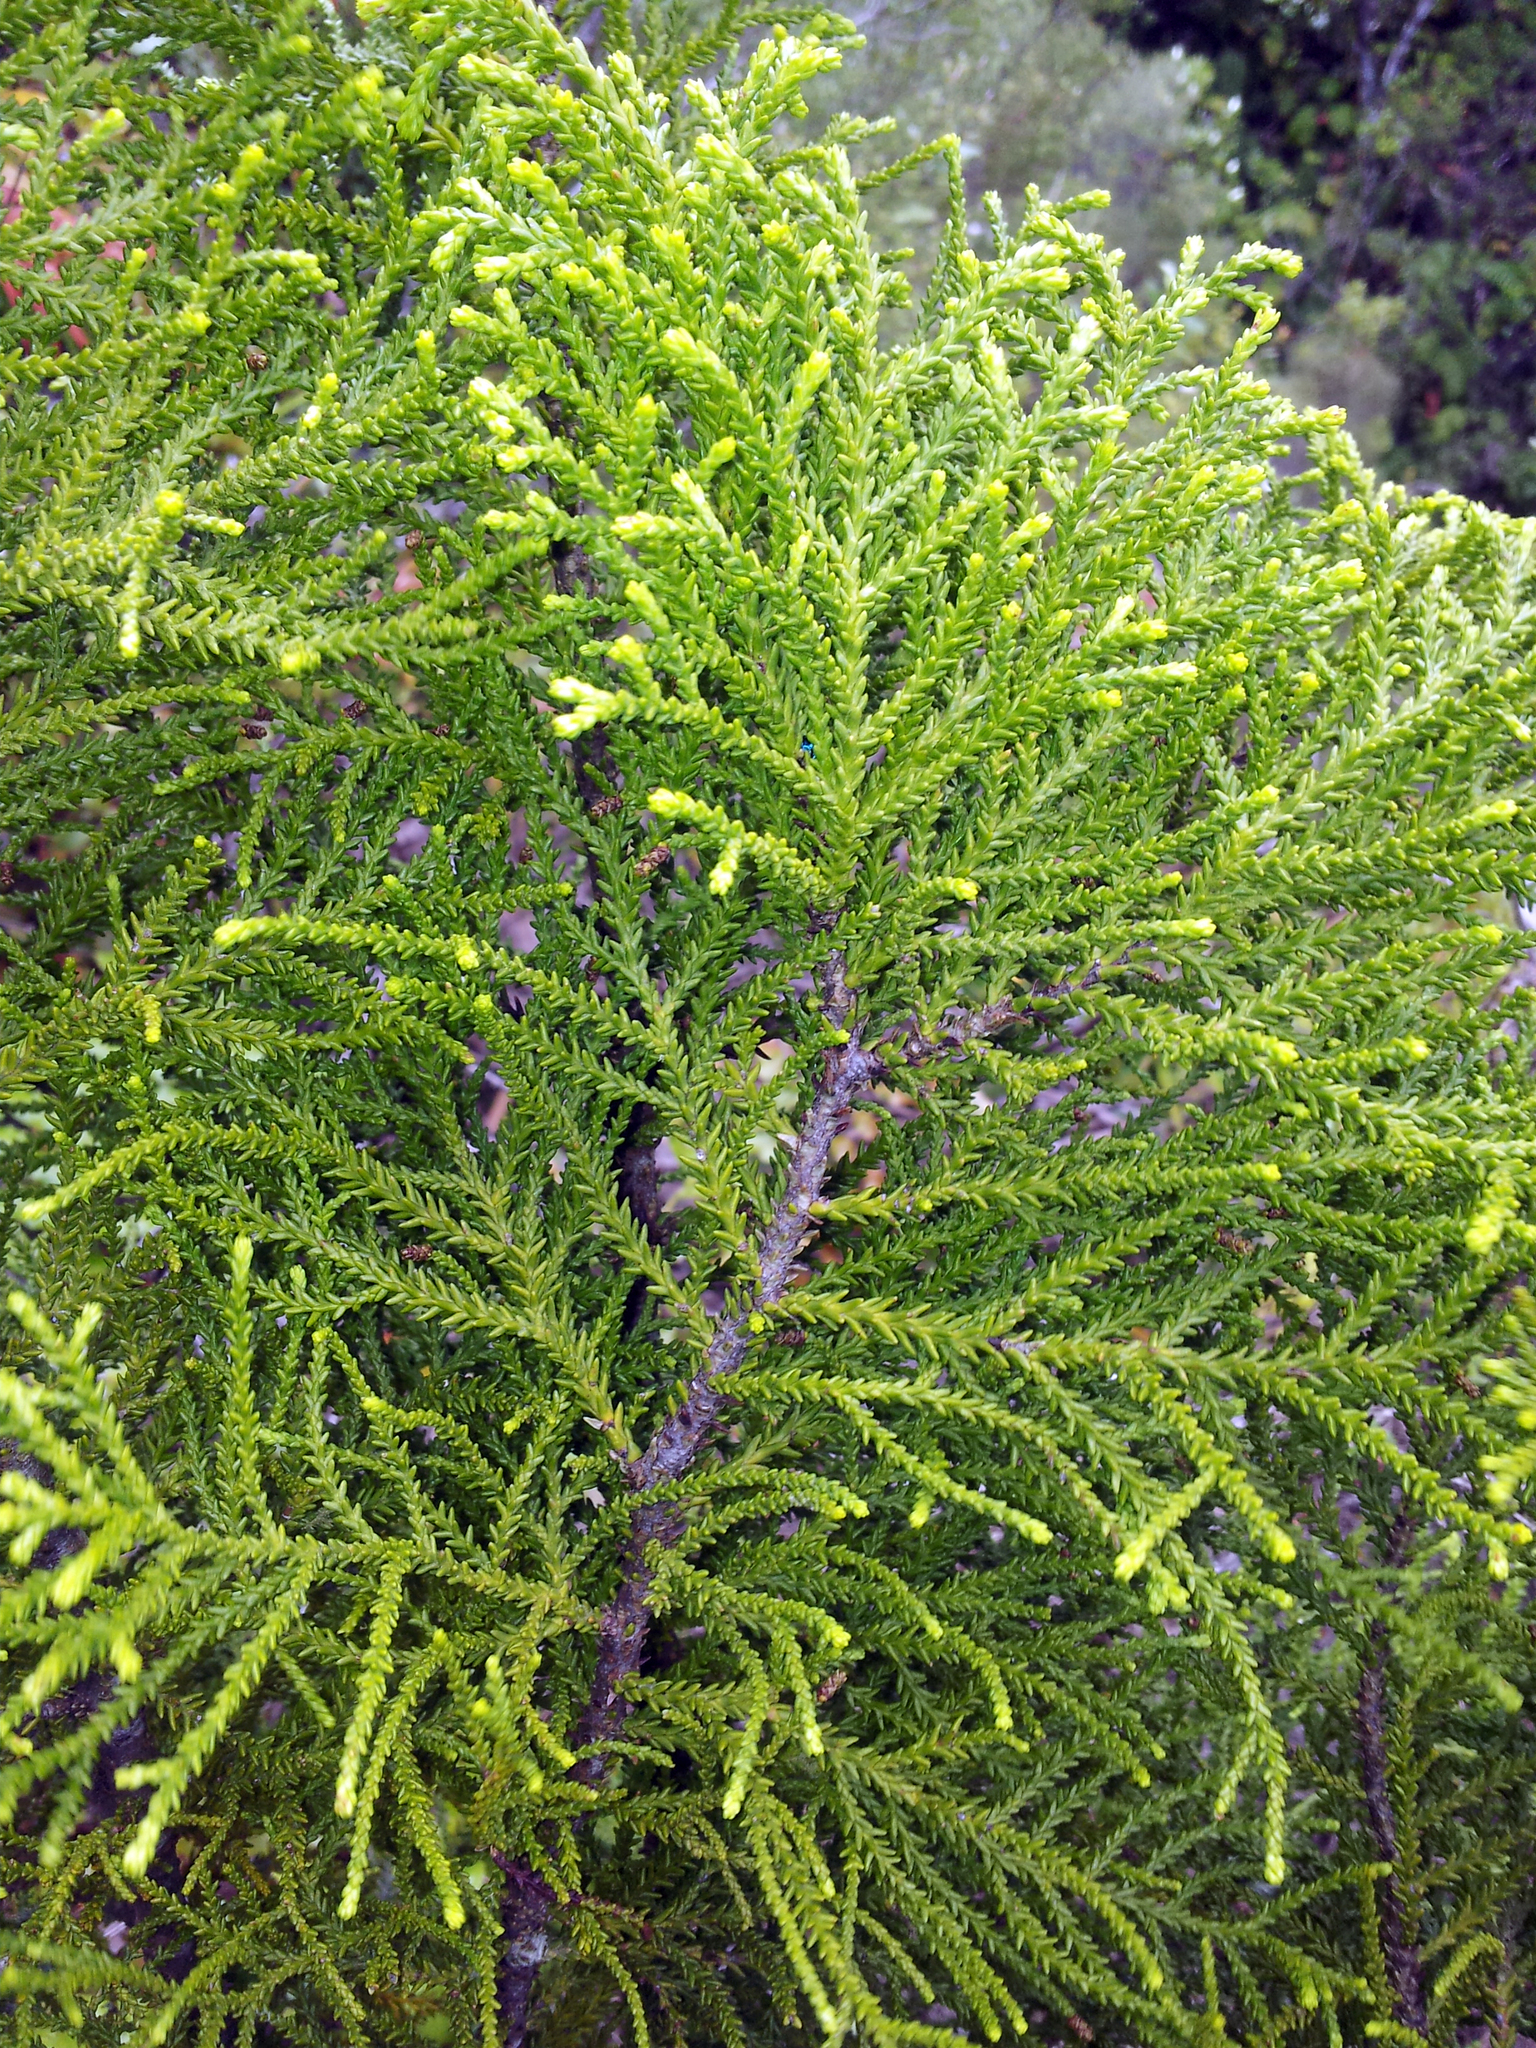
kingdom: Plantae
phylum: Tracheophyta
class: Pinopsida
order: Pinales
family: Podocarpaceae
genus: Lepidothamnus
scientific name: Lepidothamnus intermedius
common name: Yellow silver pine
